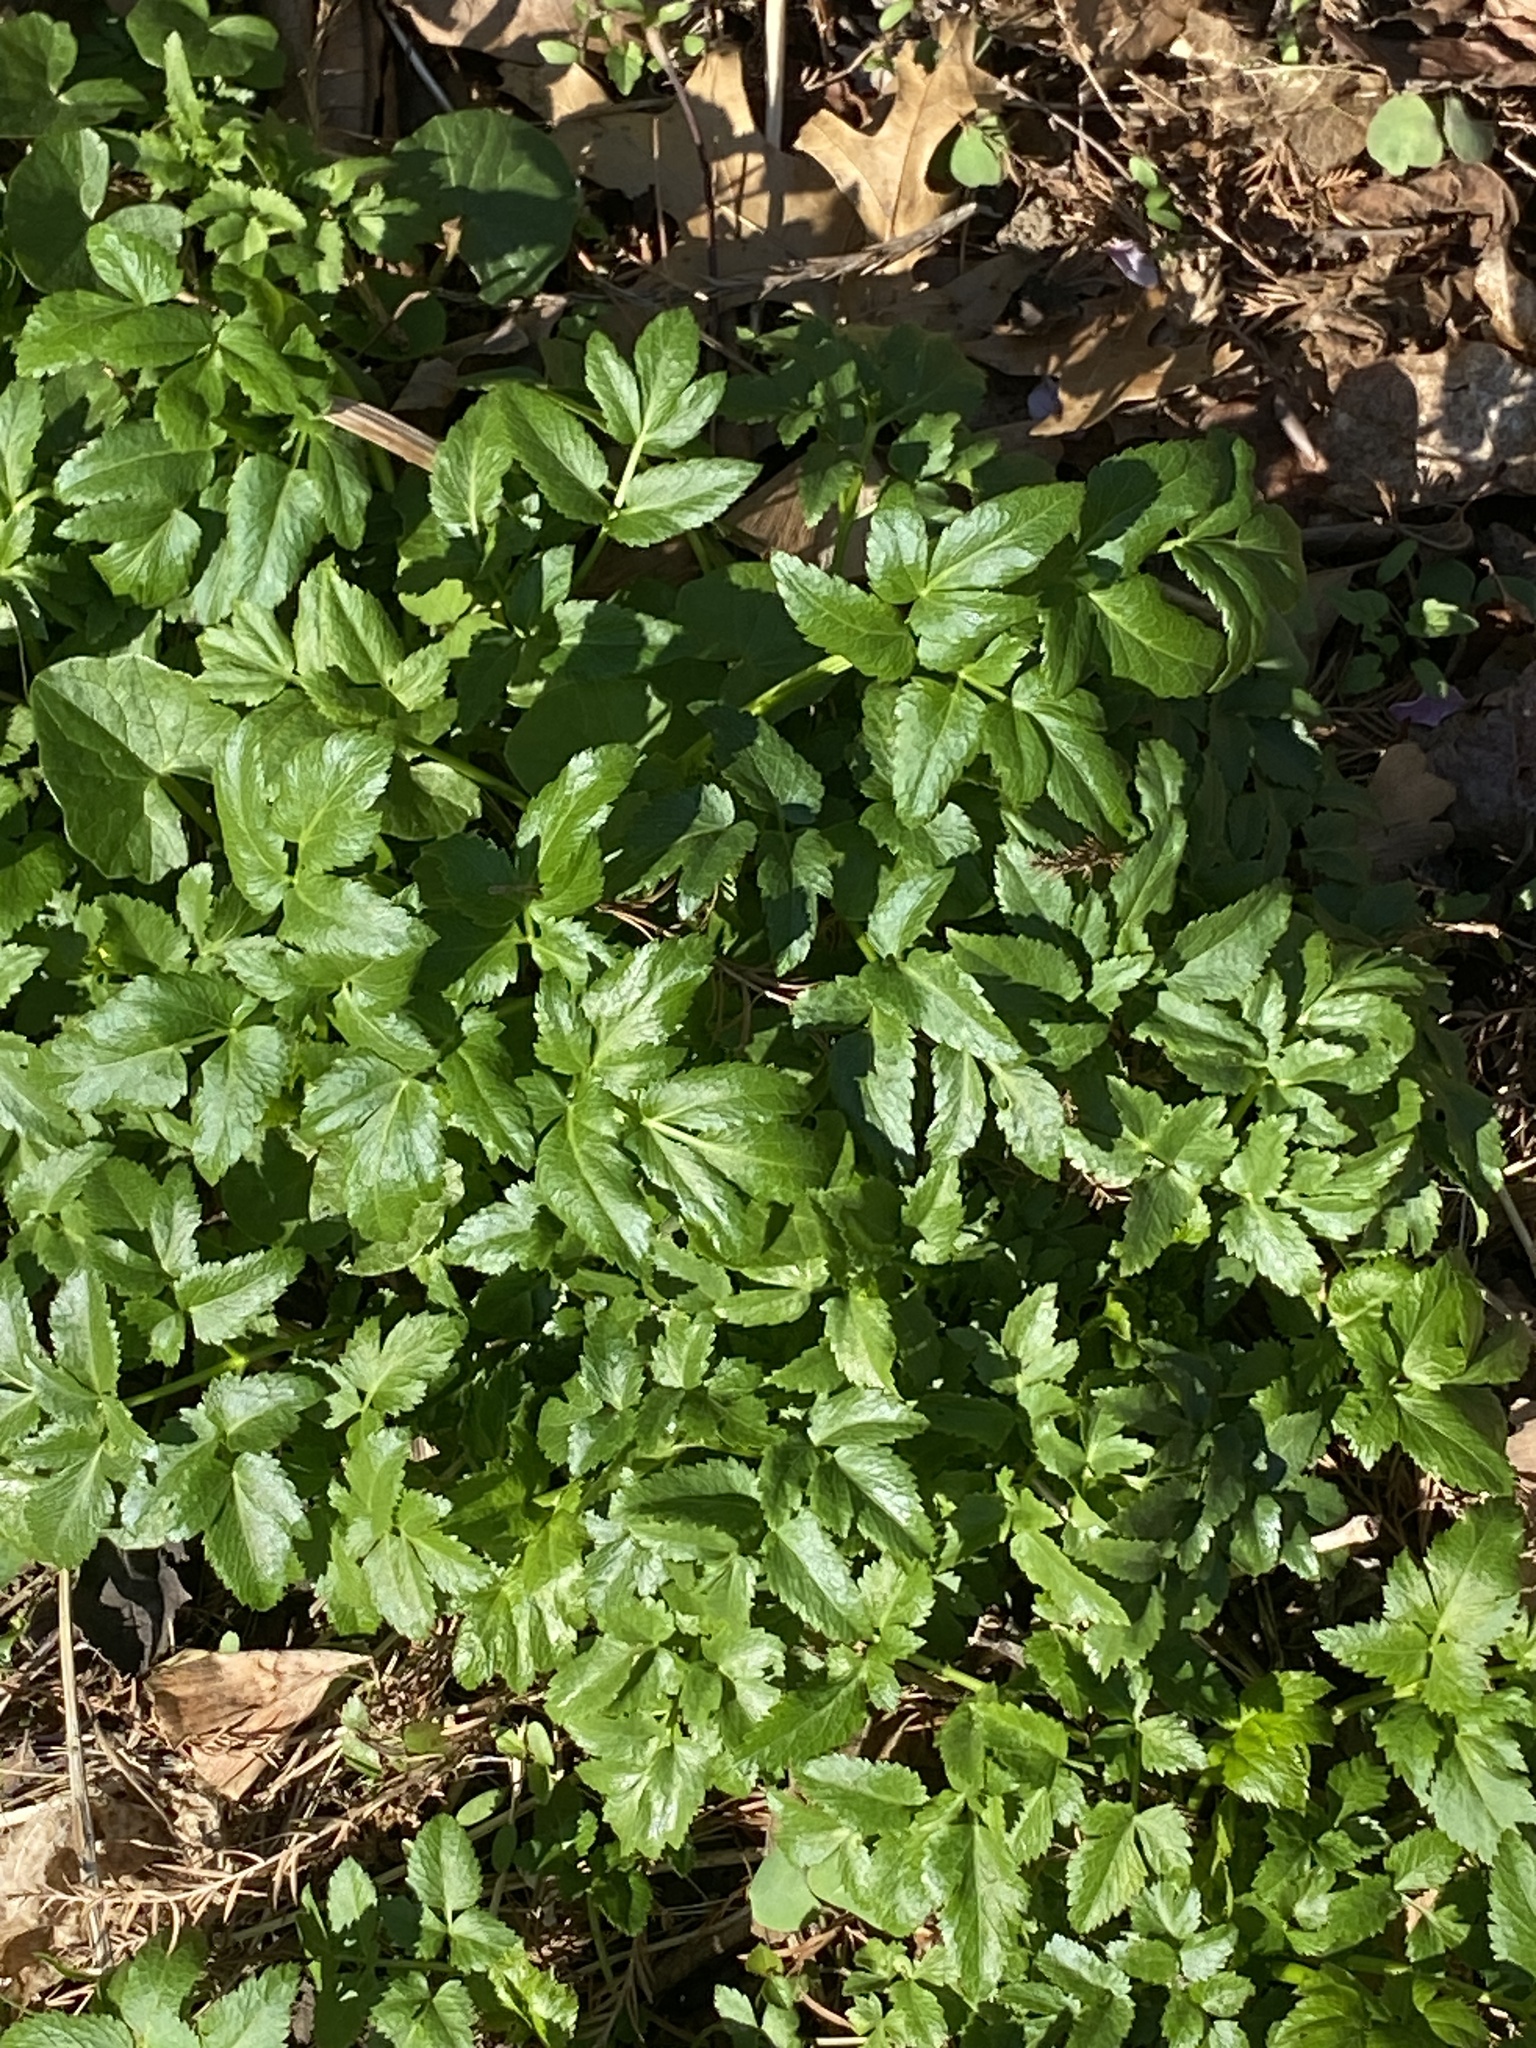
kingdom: Plantae
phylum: Tracheophyta
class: Magnoliopsida
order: Apiales
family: Apiaceae
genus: Zizia
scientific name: Zizia aurea
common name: Golden alexanders
